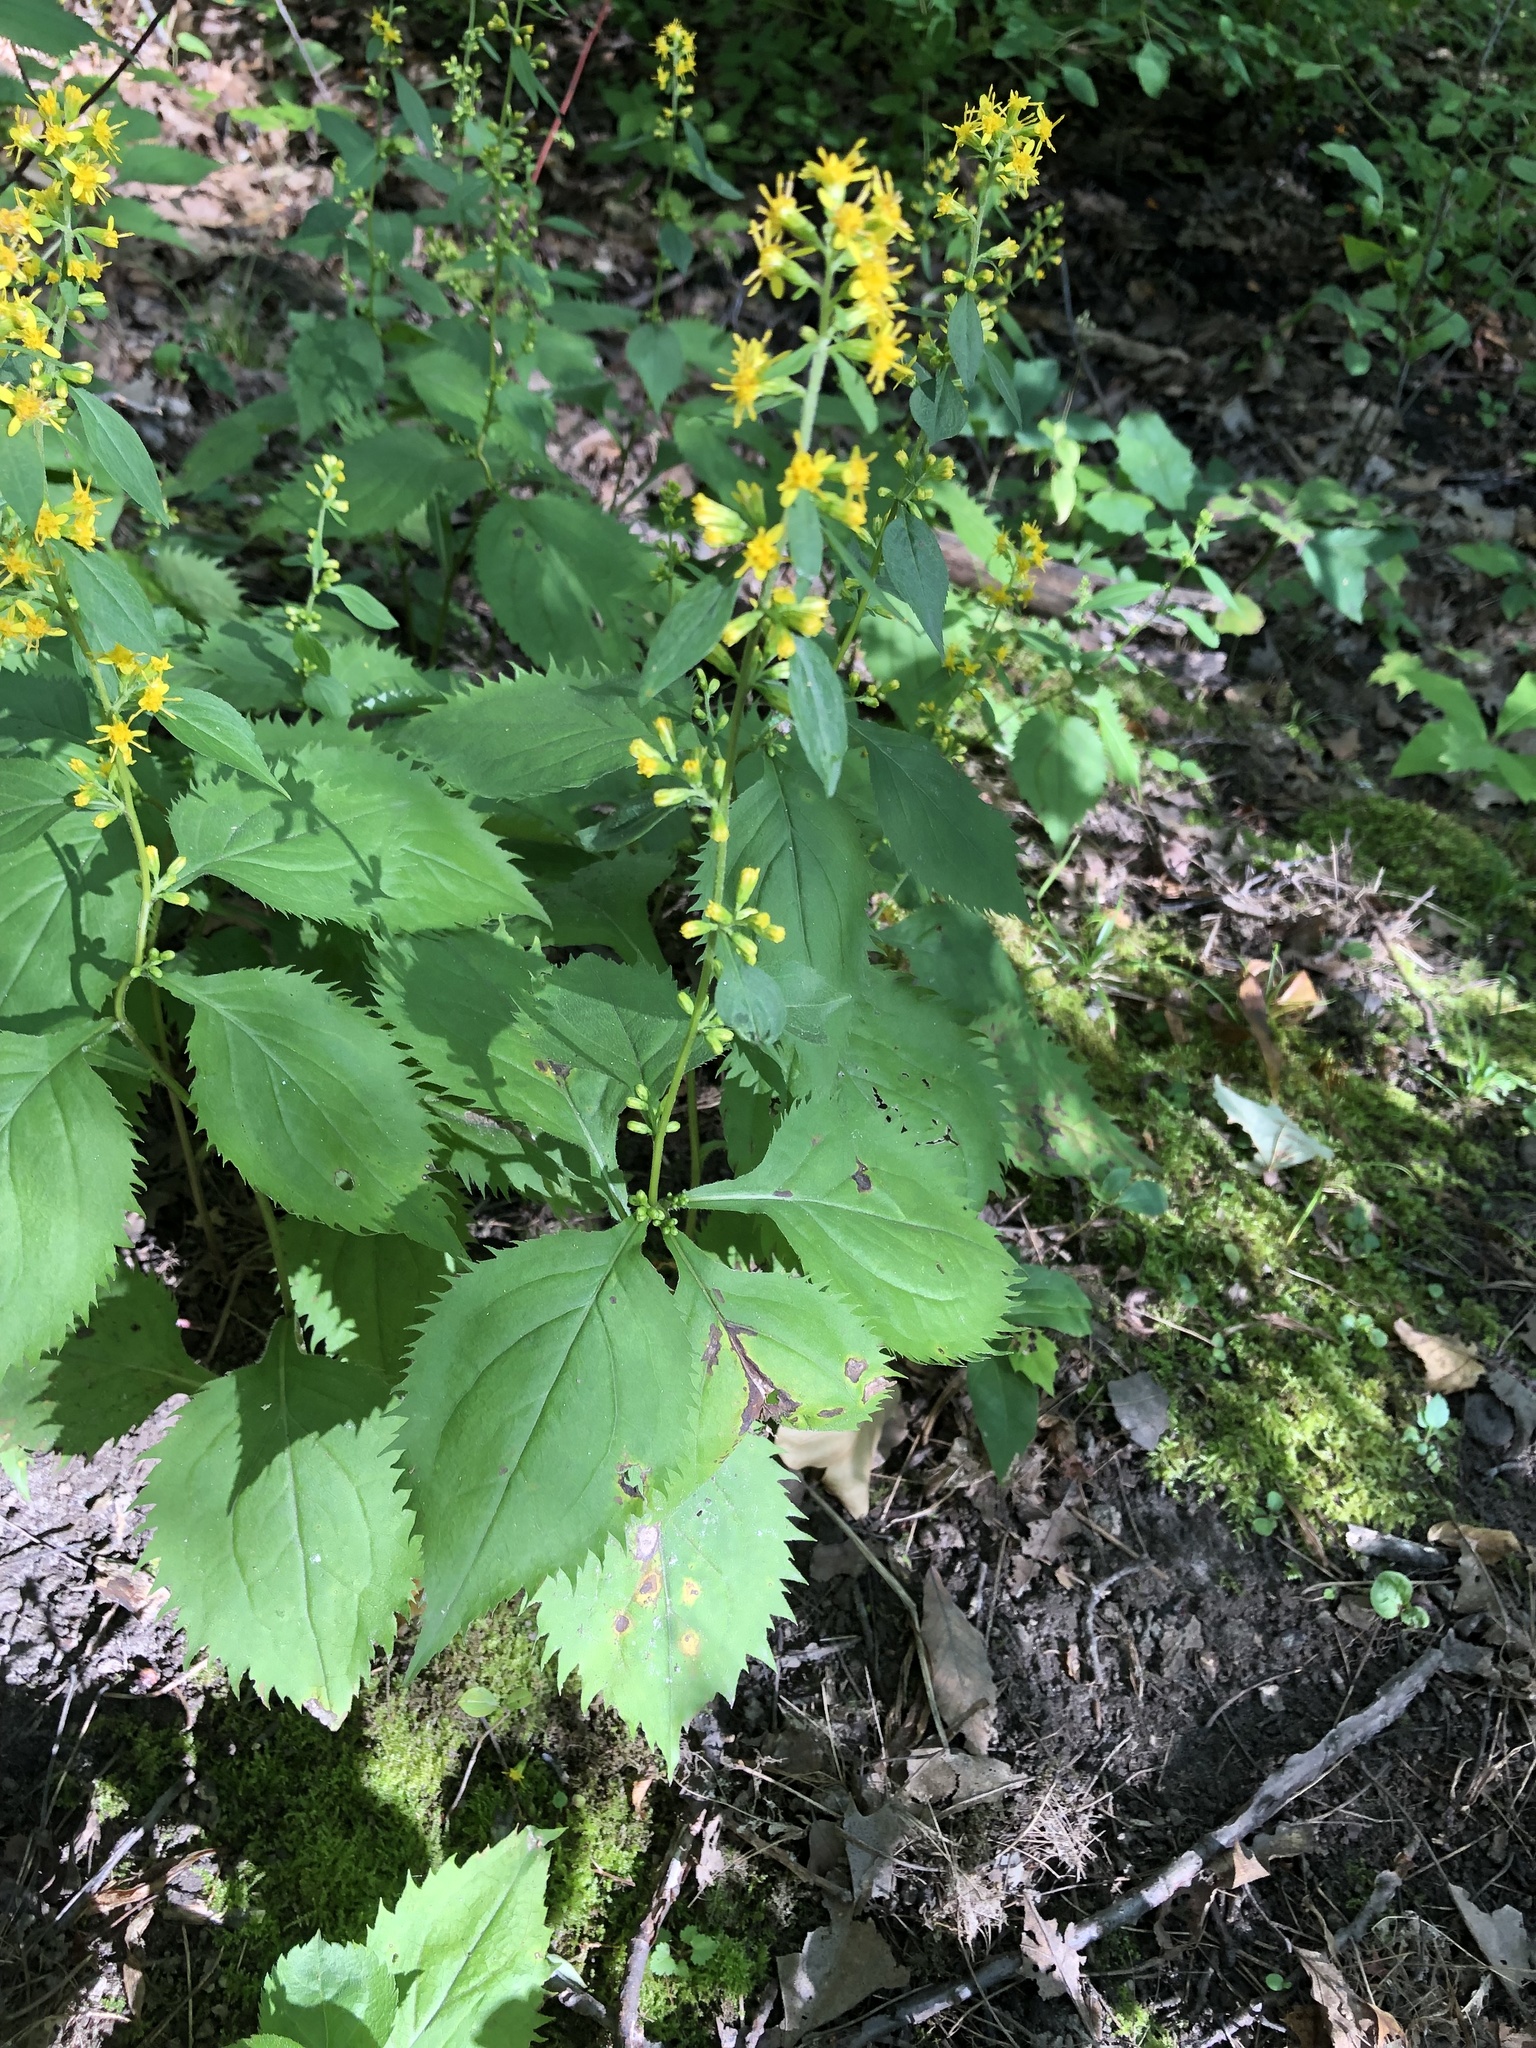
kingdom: Plantae
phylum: Tracheophyta
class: Magnoliopsida
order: Asterales
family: Asteraceae
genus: Solidago
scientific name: Solidago flexicaulis
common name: Zig-zag goldenrod
